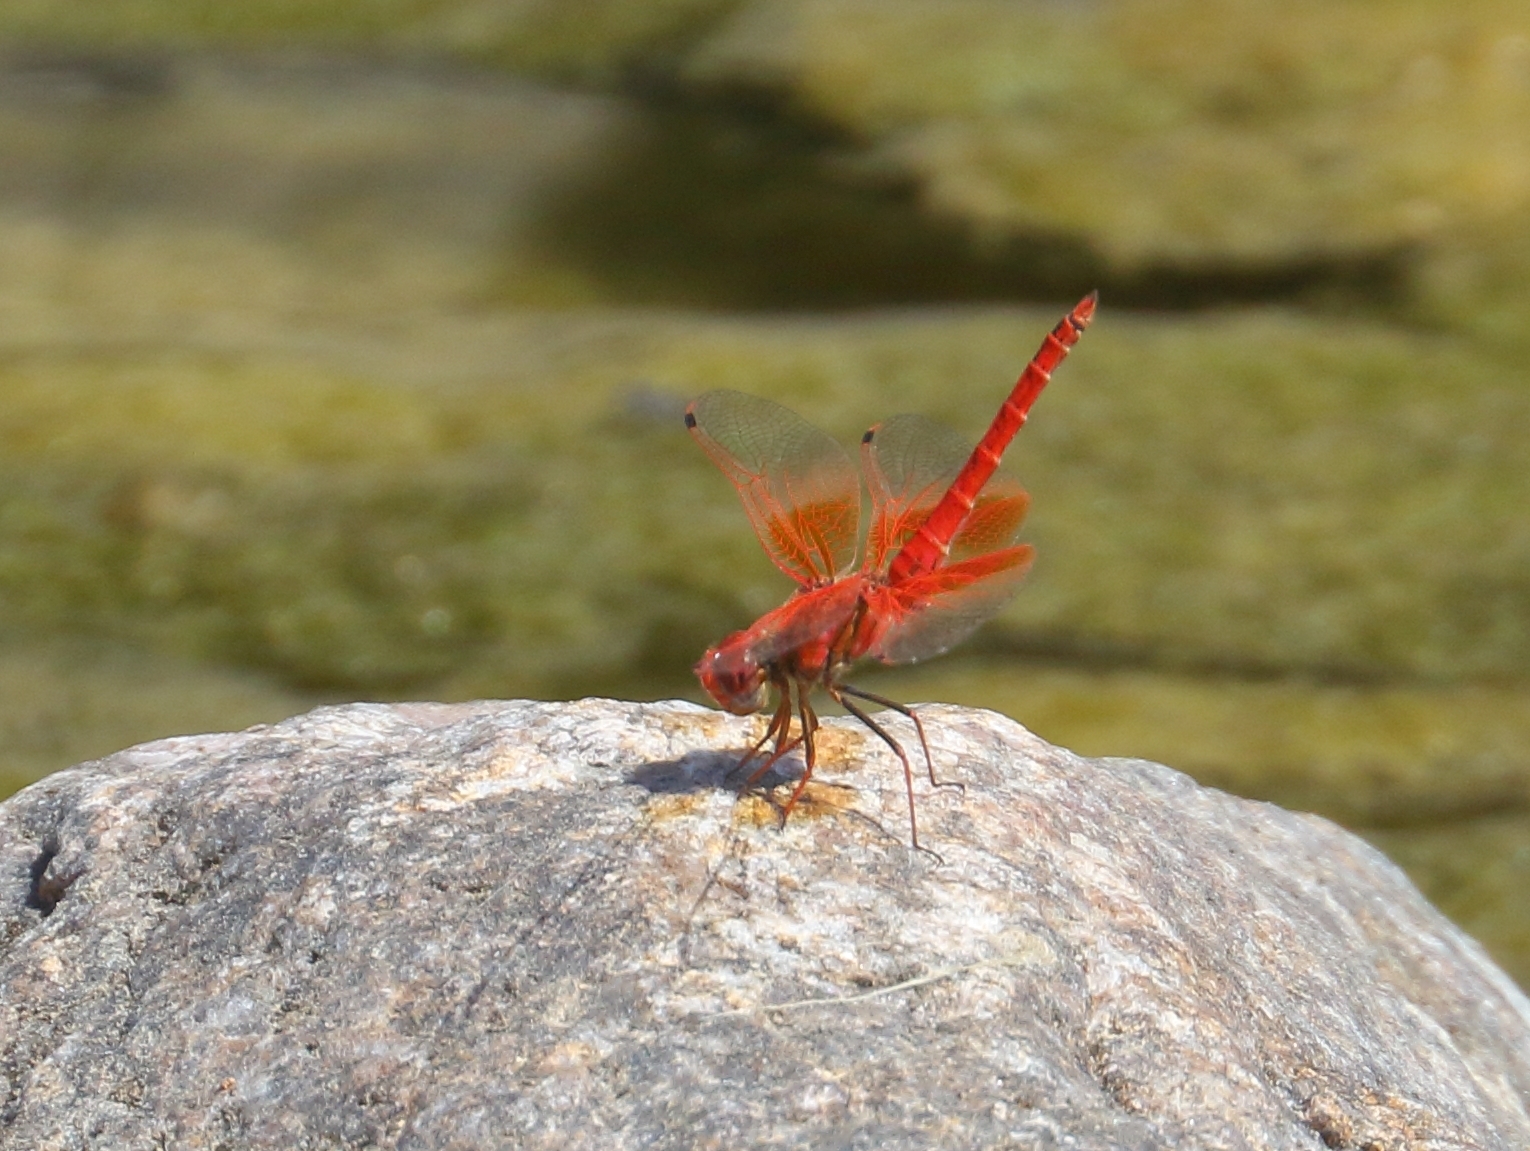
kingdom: Animalia
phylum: Arthropoda
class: Insecta
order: Odonata
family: Libellulidae
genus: Trithemis
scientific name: Trithemis kirbyi
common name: Kirby's dropwing
